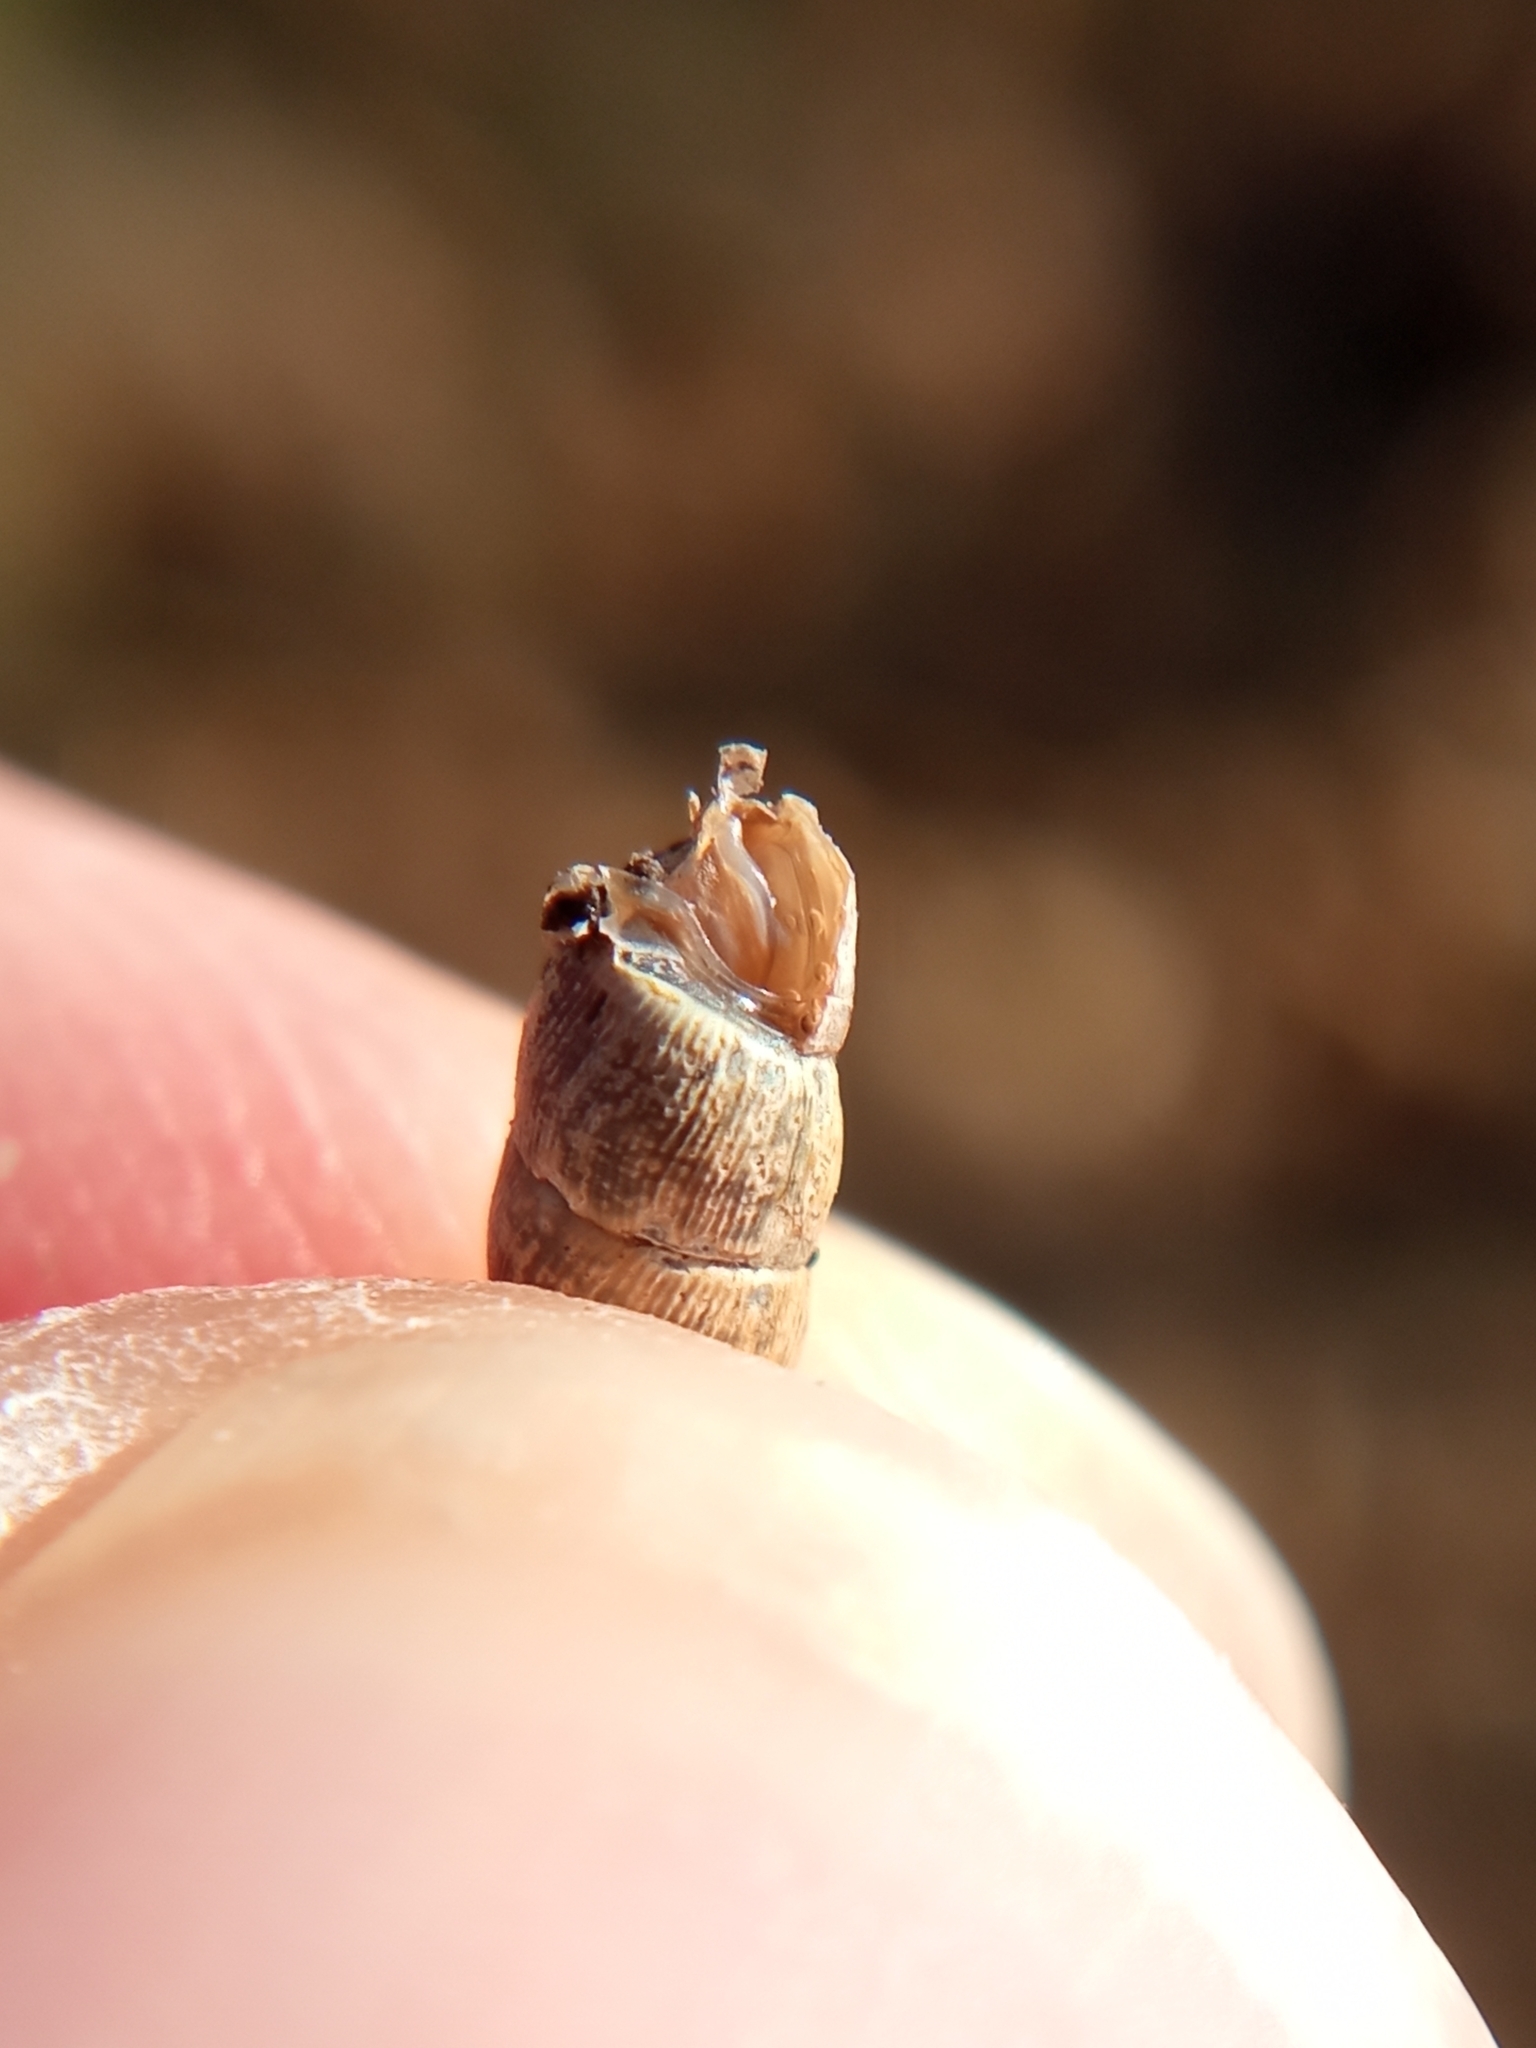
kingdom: Animalia
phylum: Mollusca
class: Gastropoda
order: Stylommatophora
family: Clausiliidae
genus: Clausilia
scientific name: Clausilia bidentata
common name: Two-toothed door snail
